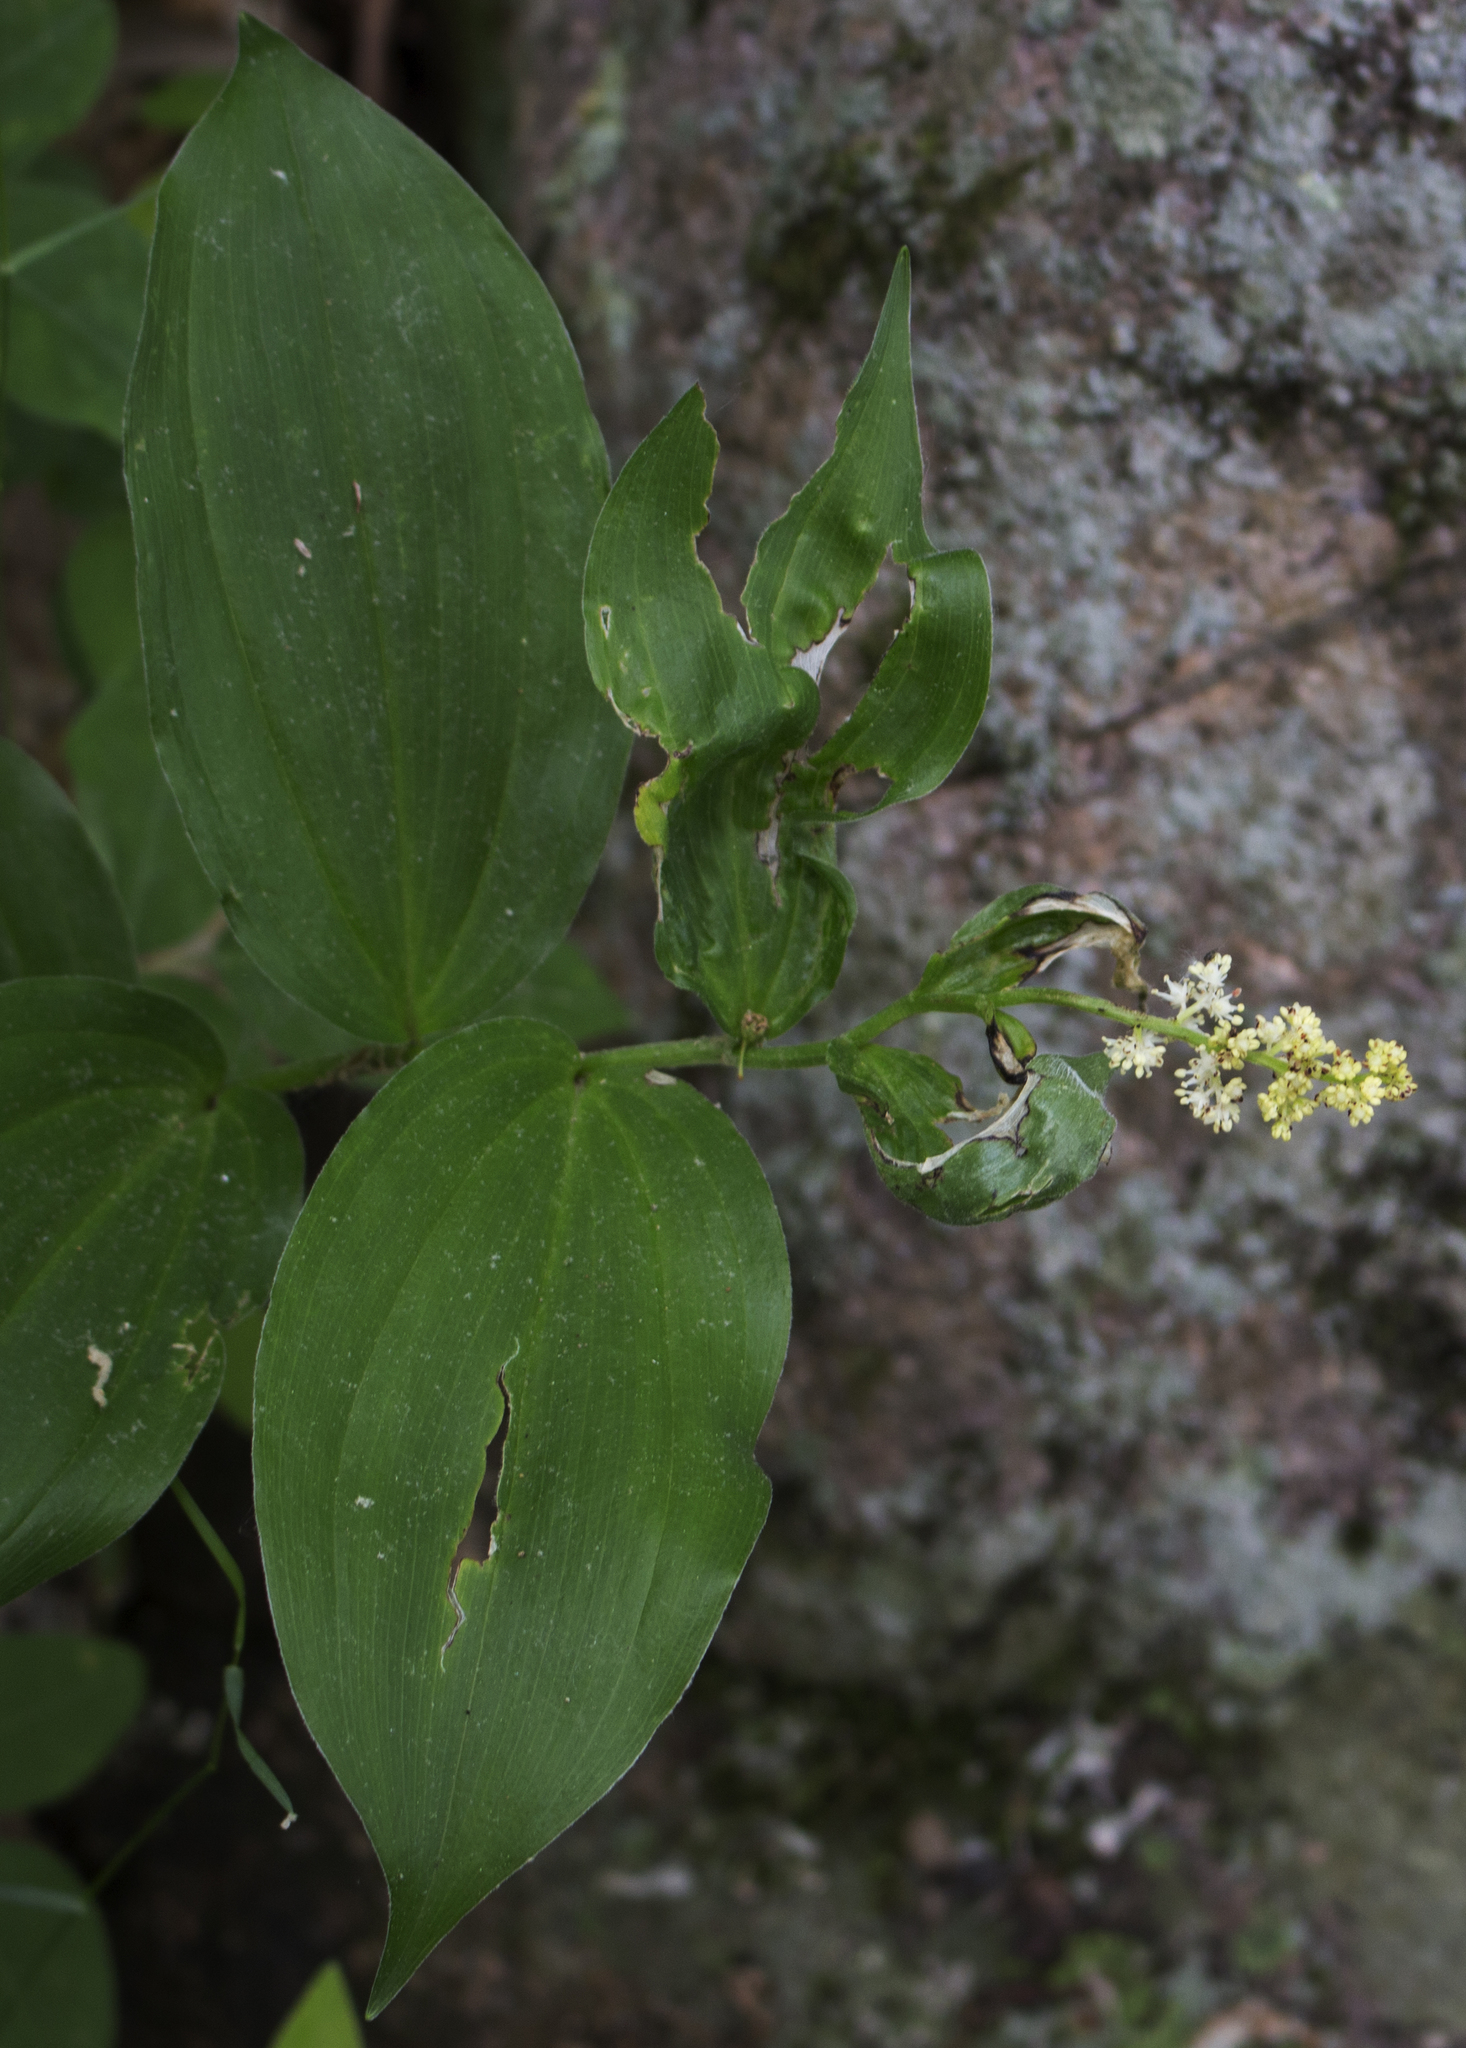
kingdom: Plantae
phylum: Tracheophyta
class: Liliopsida
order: Asparagales
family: Asparagaceae
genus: Maianthemum
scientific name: Maianthemum racemosum
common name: False spikenard
